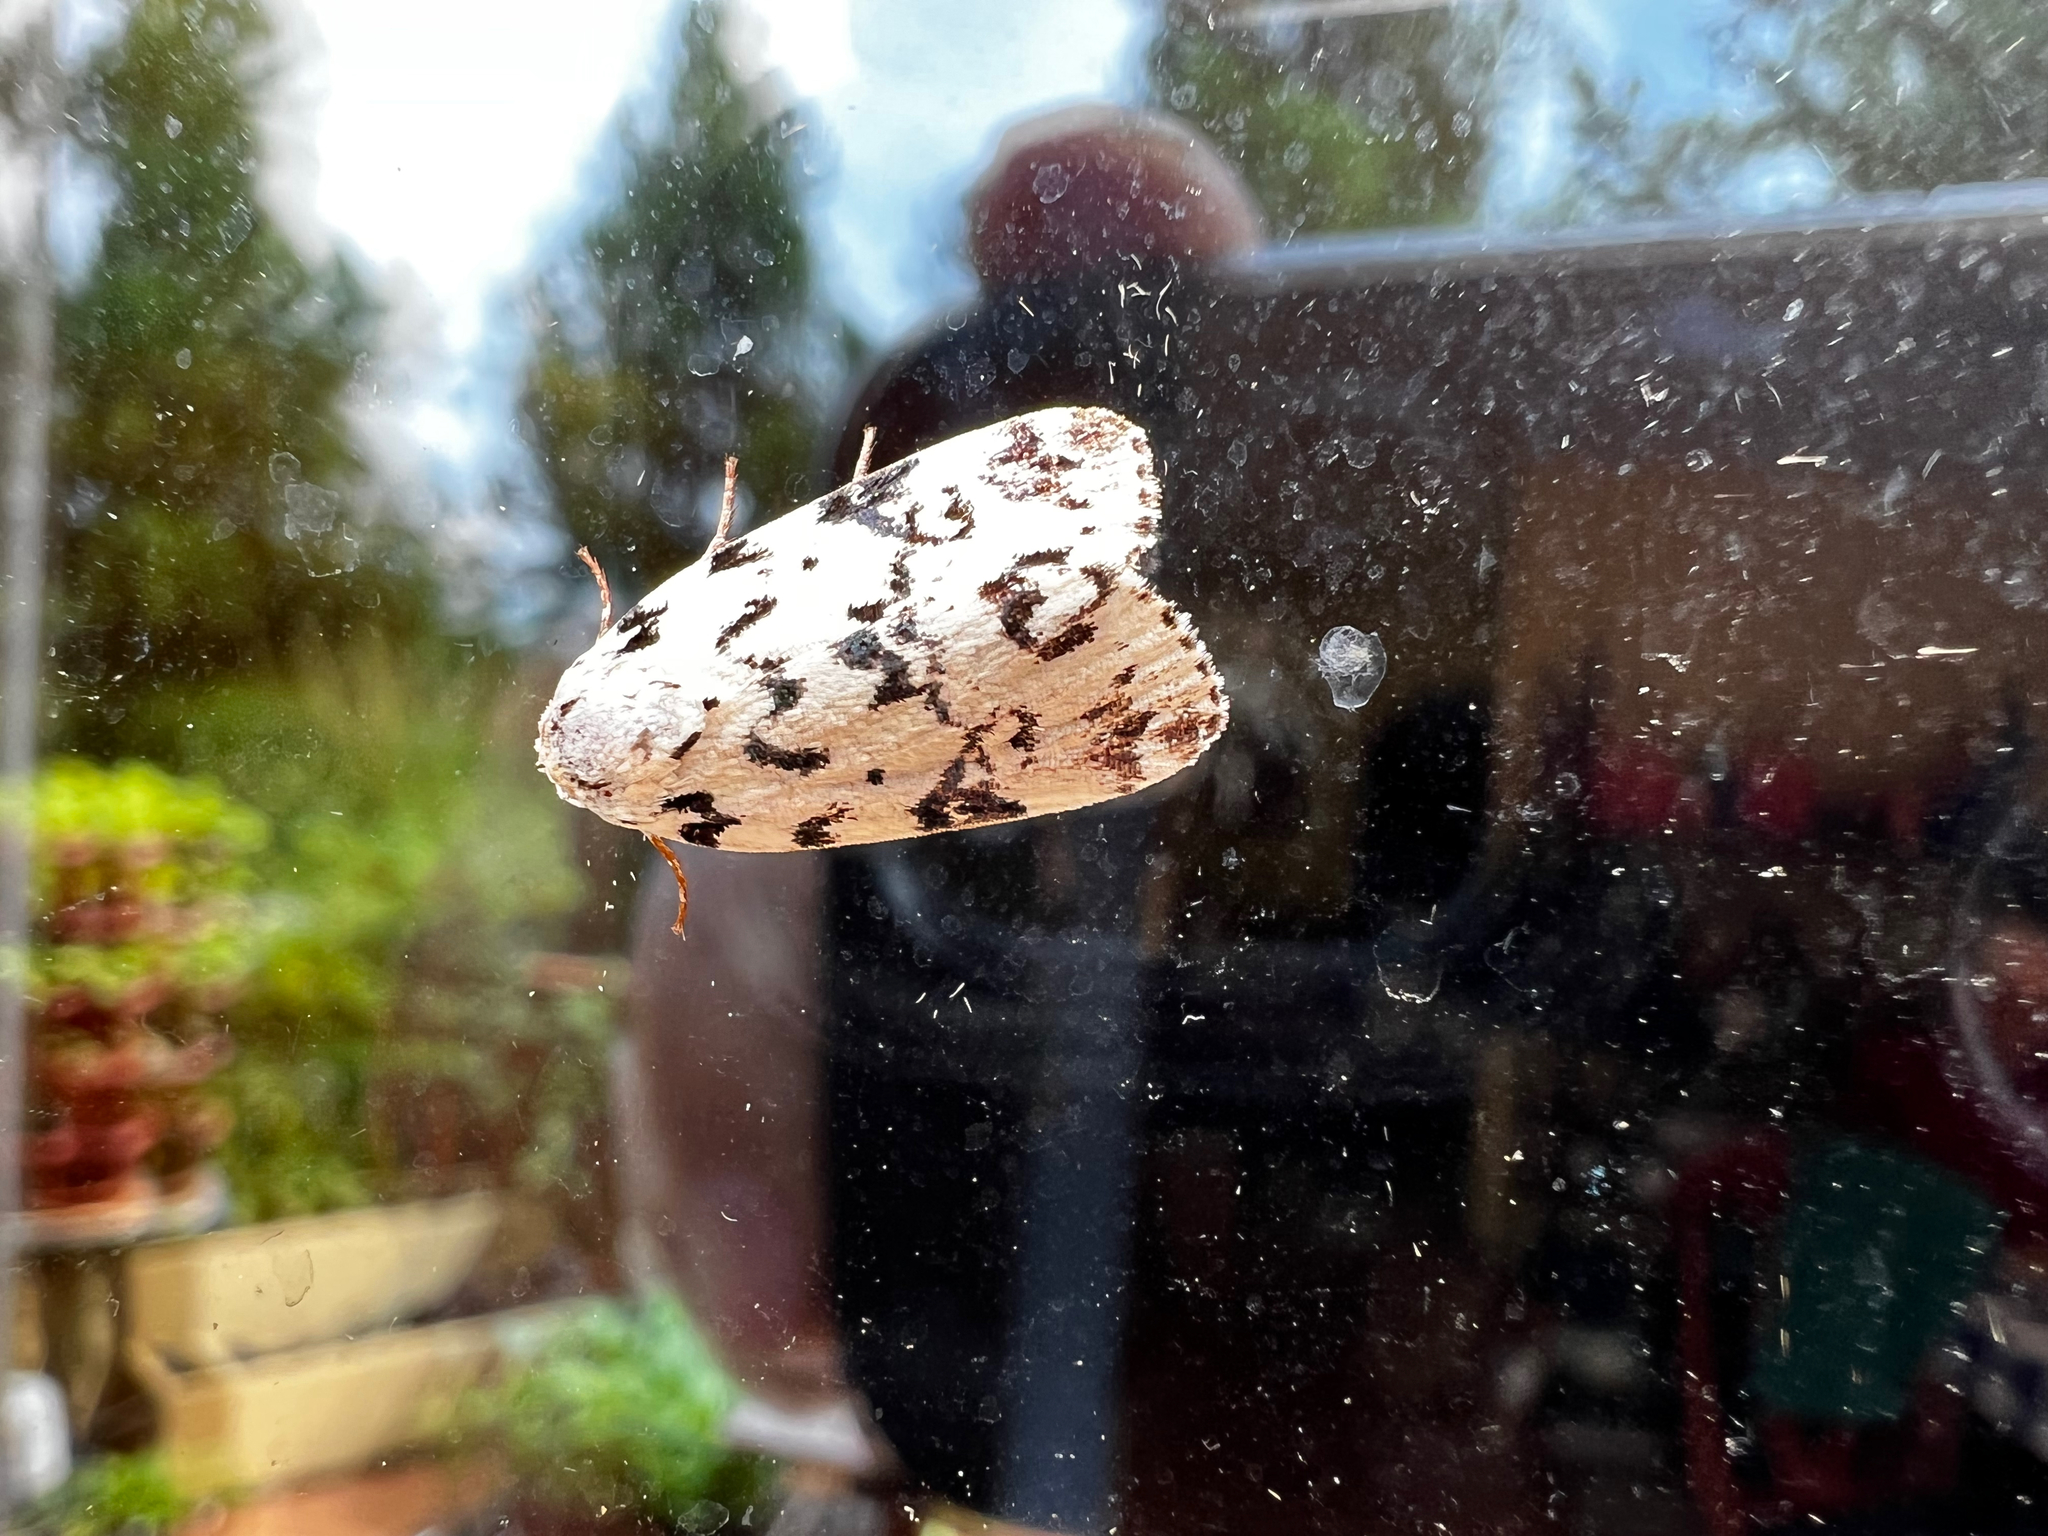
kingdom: Animalia
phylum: Arthropoda
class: Insecta
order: Lepidoptera
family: Noctuidae
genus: Polygrammate
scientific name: Polygrammate hebraeicum
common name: Hebrew moth
